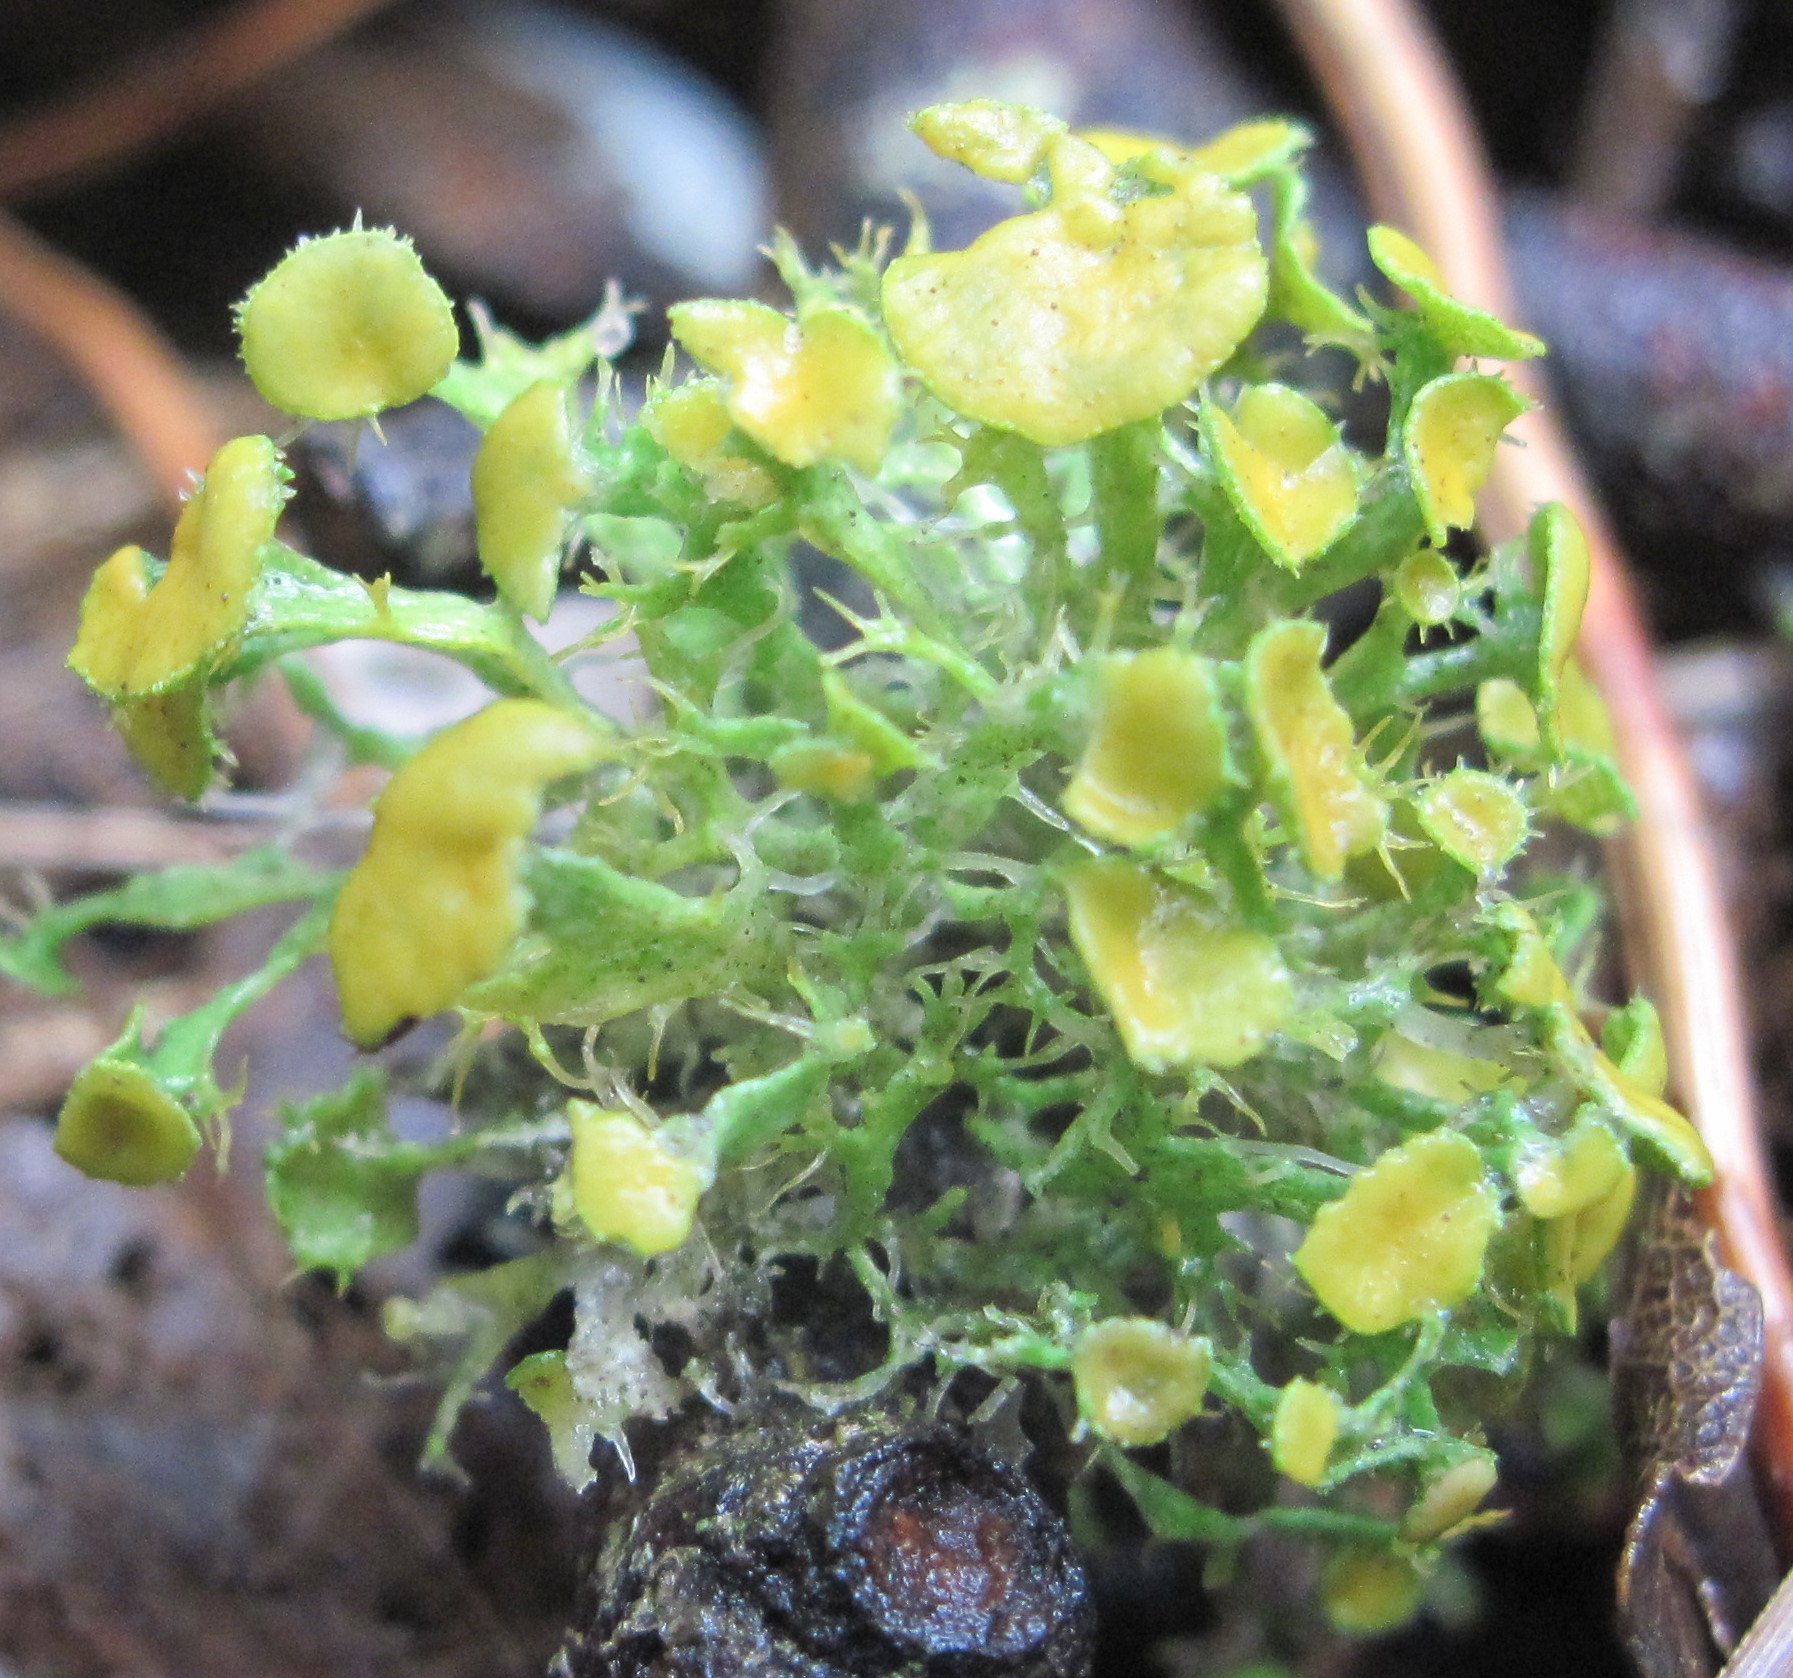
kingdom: Fungi
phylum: Ascomycota
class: Lecanoromycetes
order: Teloschistales
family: Teloschistaceae
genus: Niorma
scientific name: Niorma chrysophthalma
